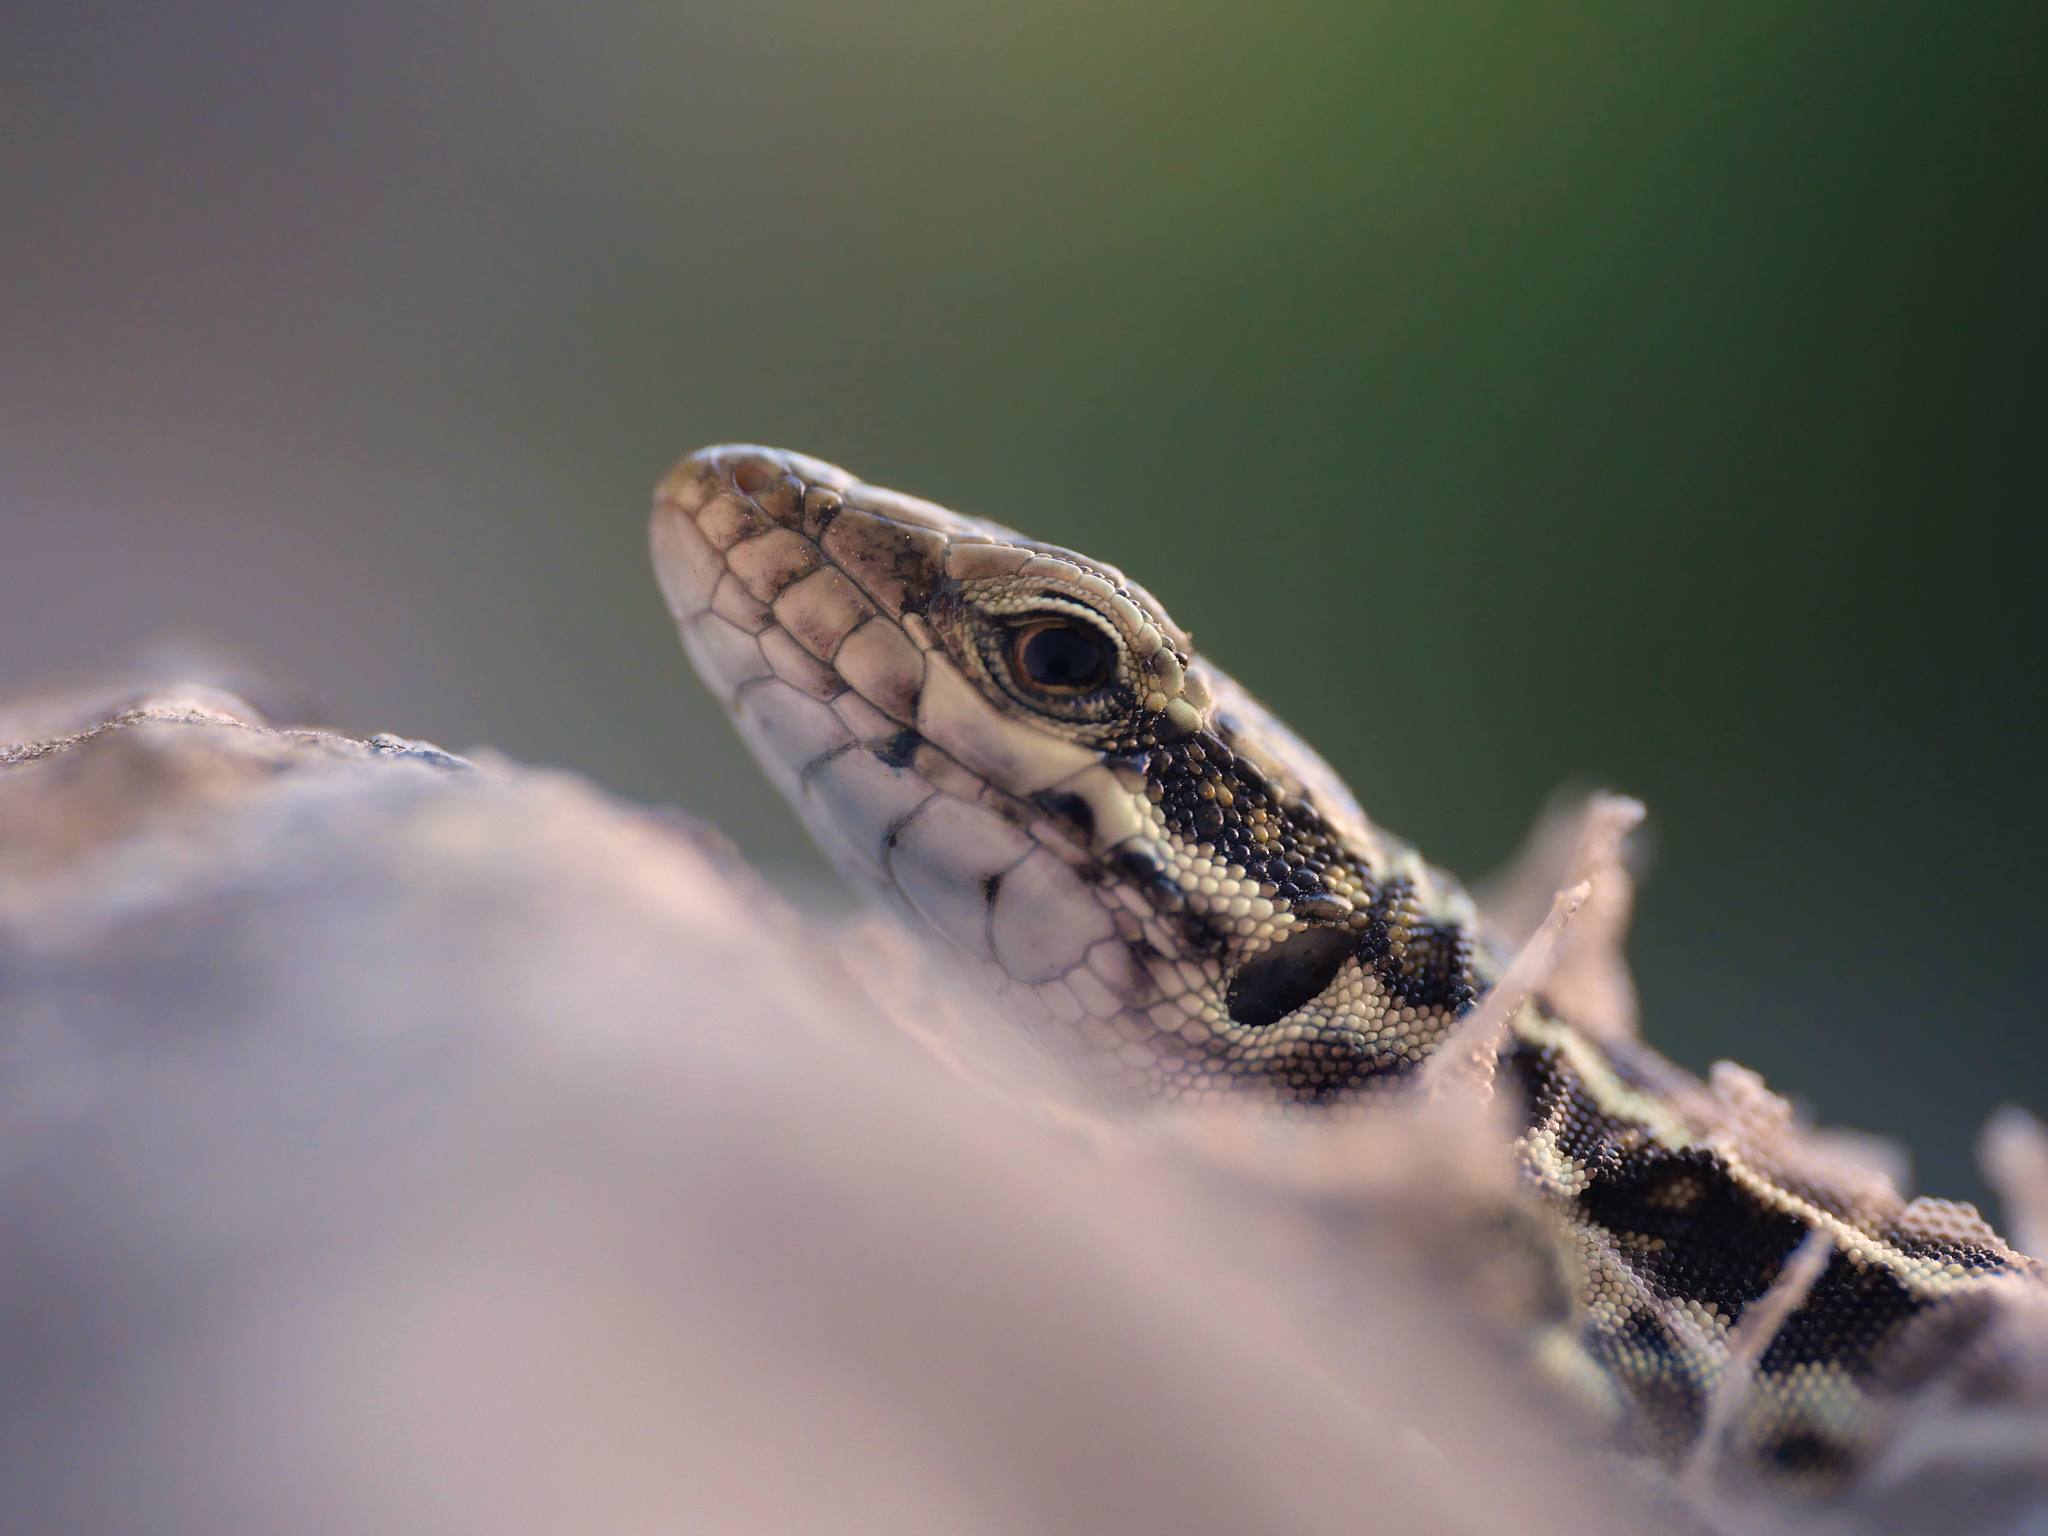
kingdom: Animalia
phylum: Chordata
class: Squamata
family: Lacertidae
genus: Podarcis
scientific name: Podarcis erhardii
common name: Erhard's wall lizard
